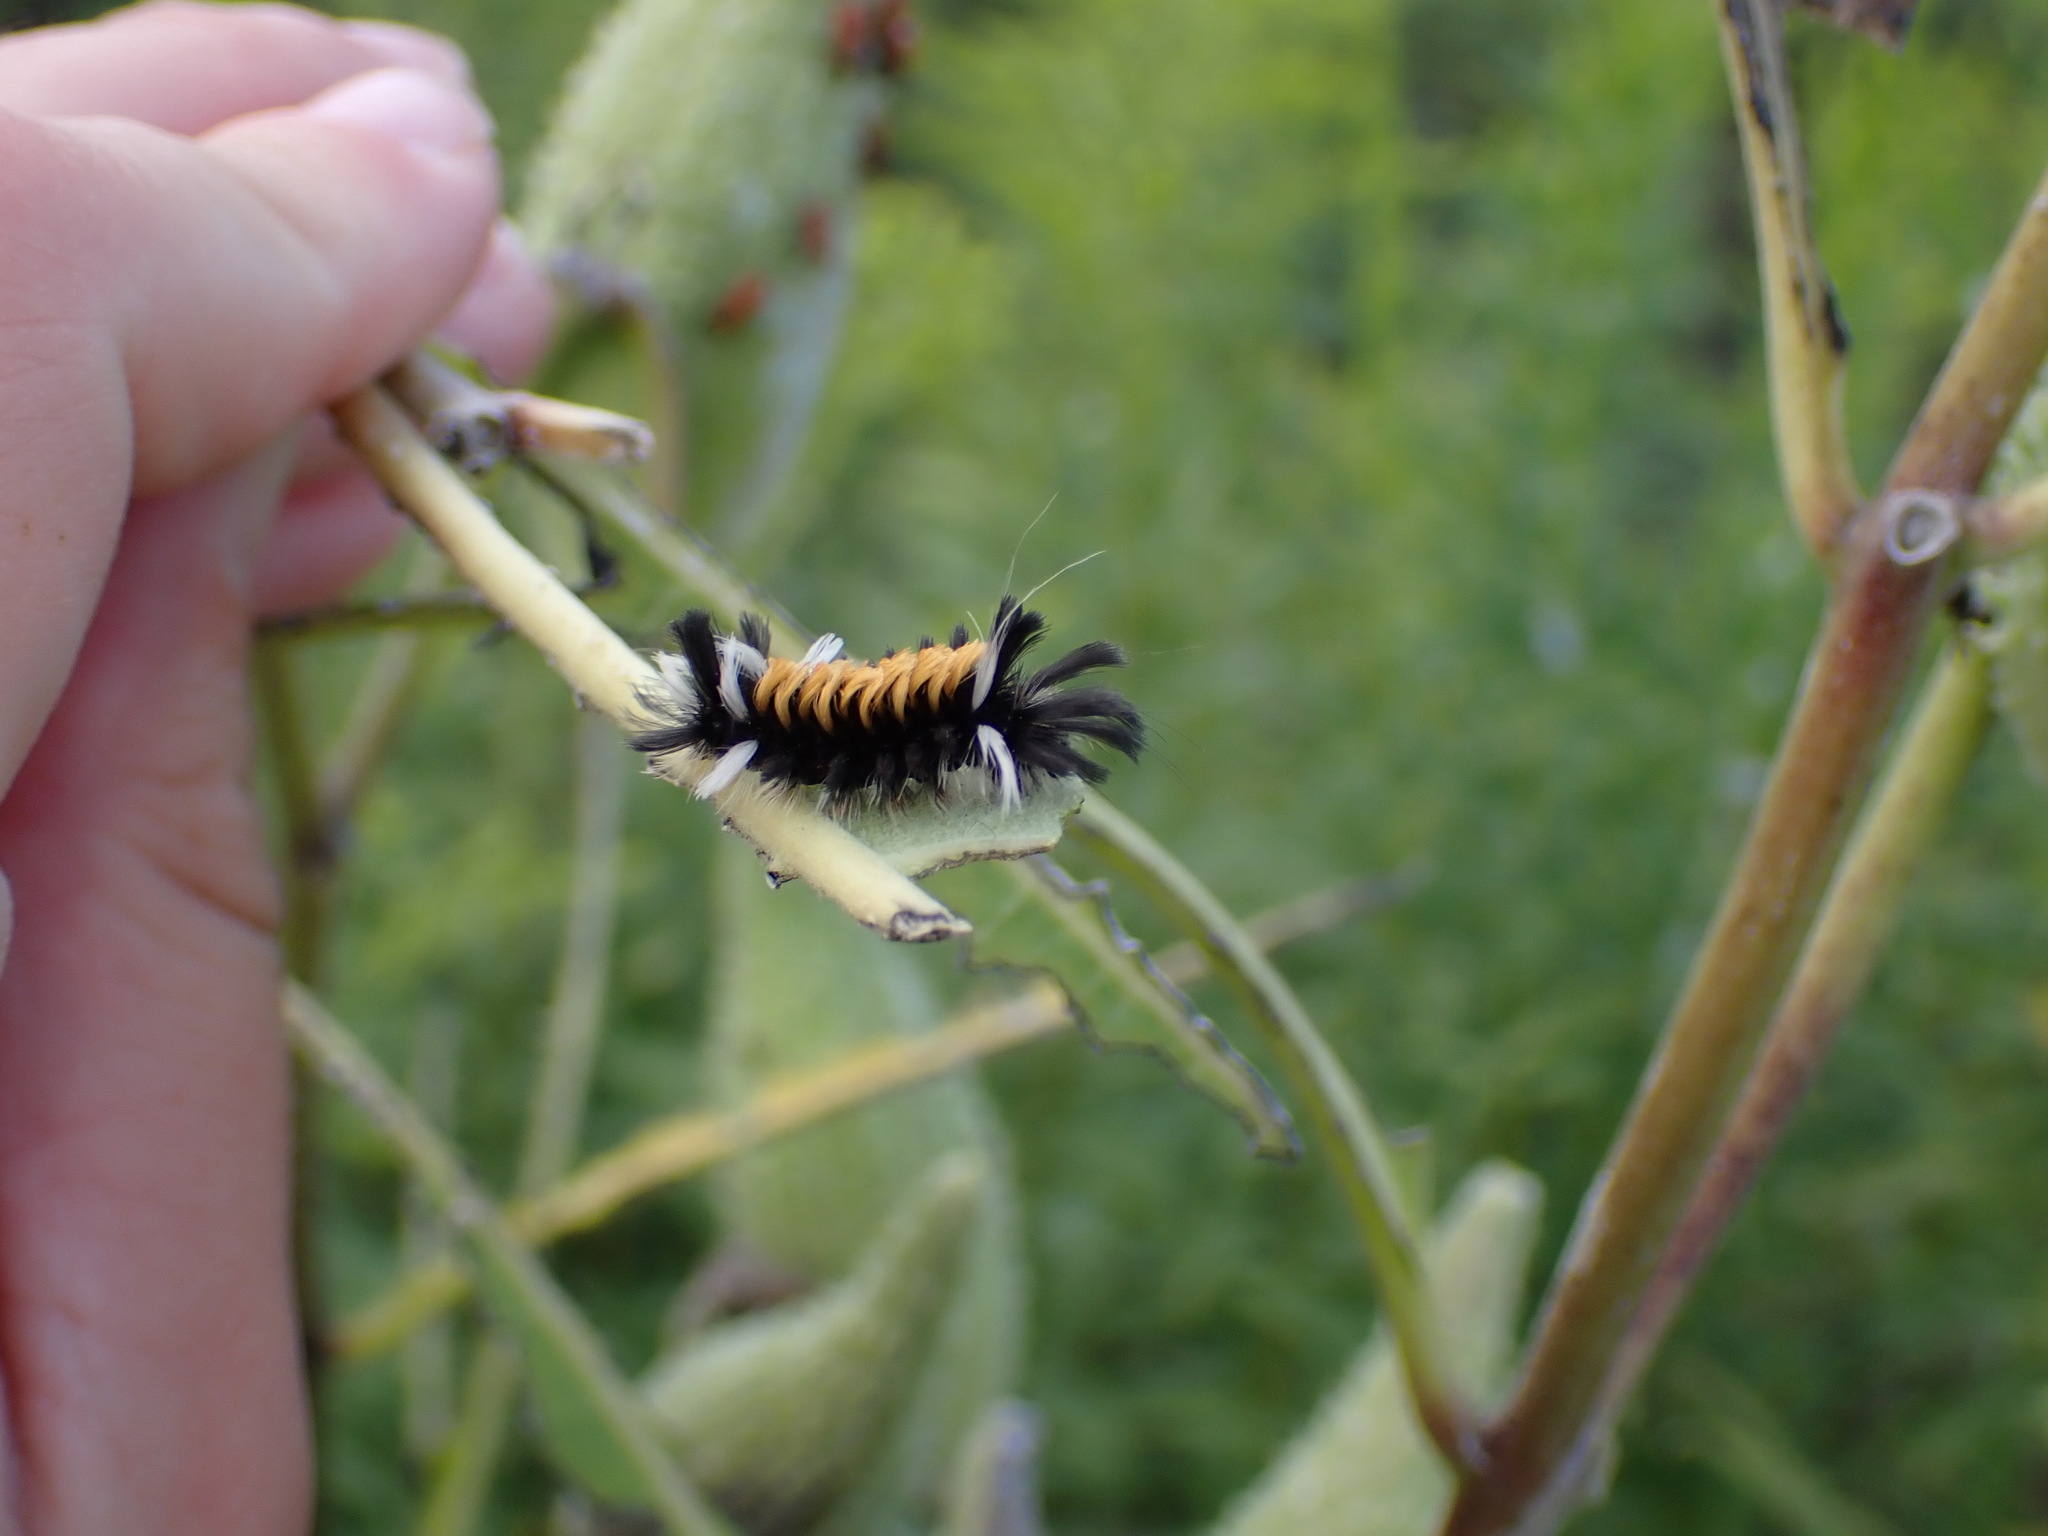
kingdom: Animalia
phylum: Arthropoda
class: Insecta
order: Lepidoptera
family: Erebidae
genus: Euchaetes
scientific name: Euchaetes egle
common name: Milkweed tussock moth
